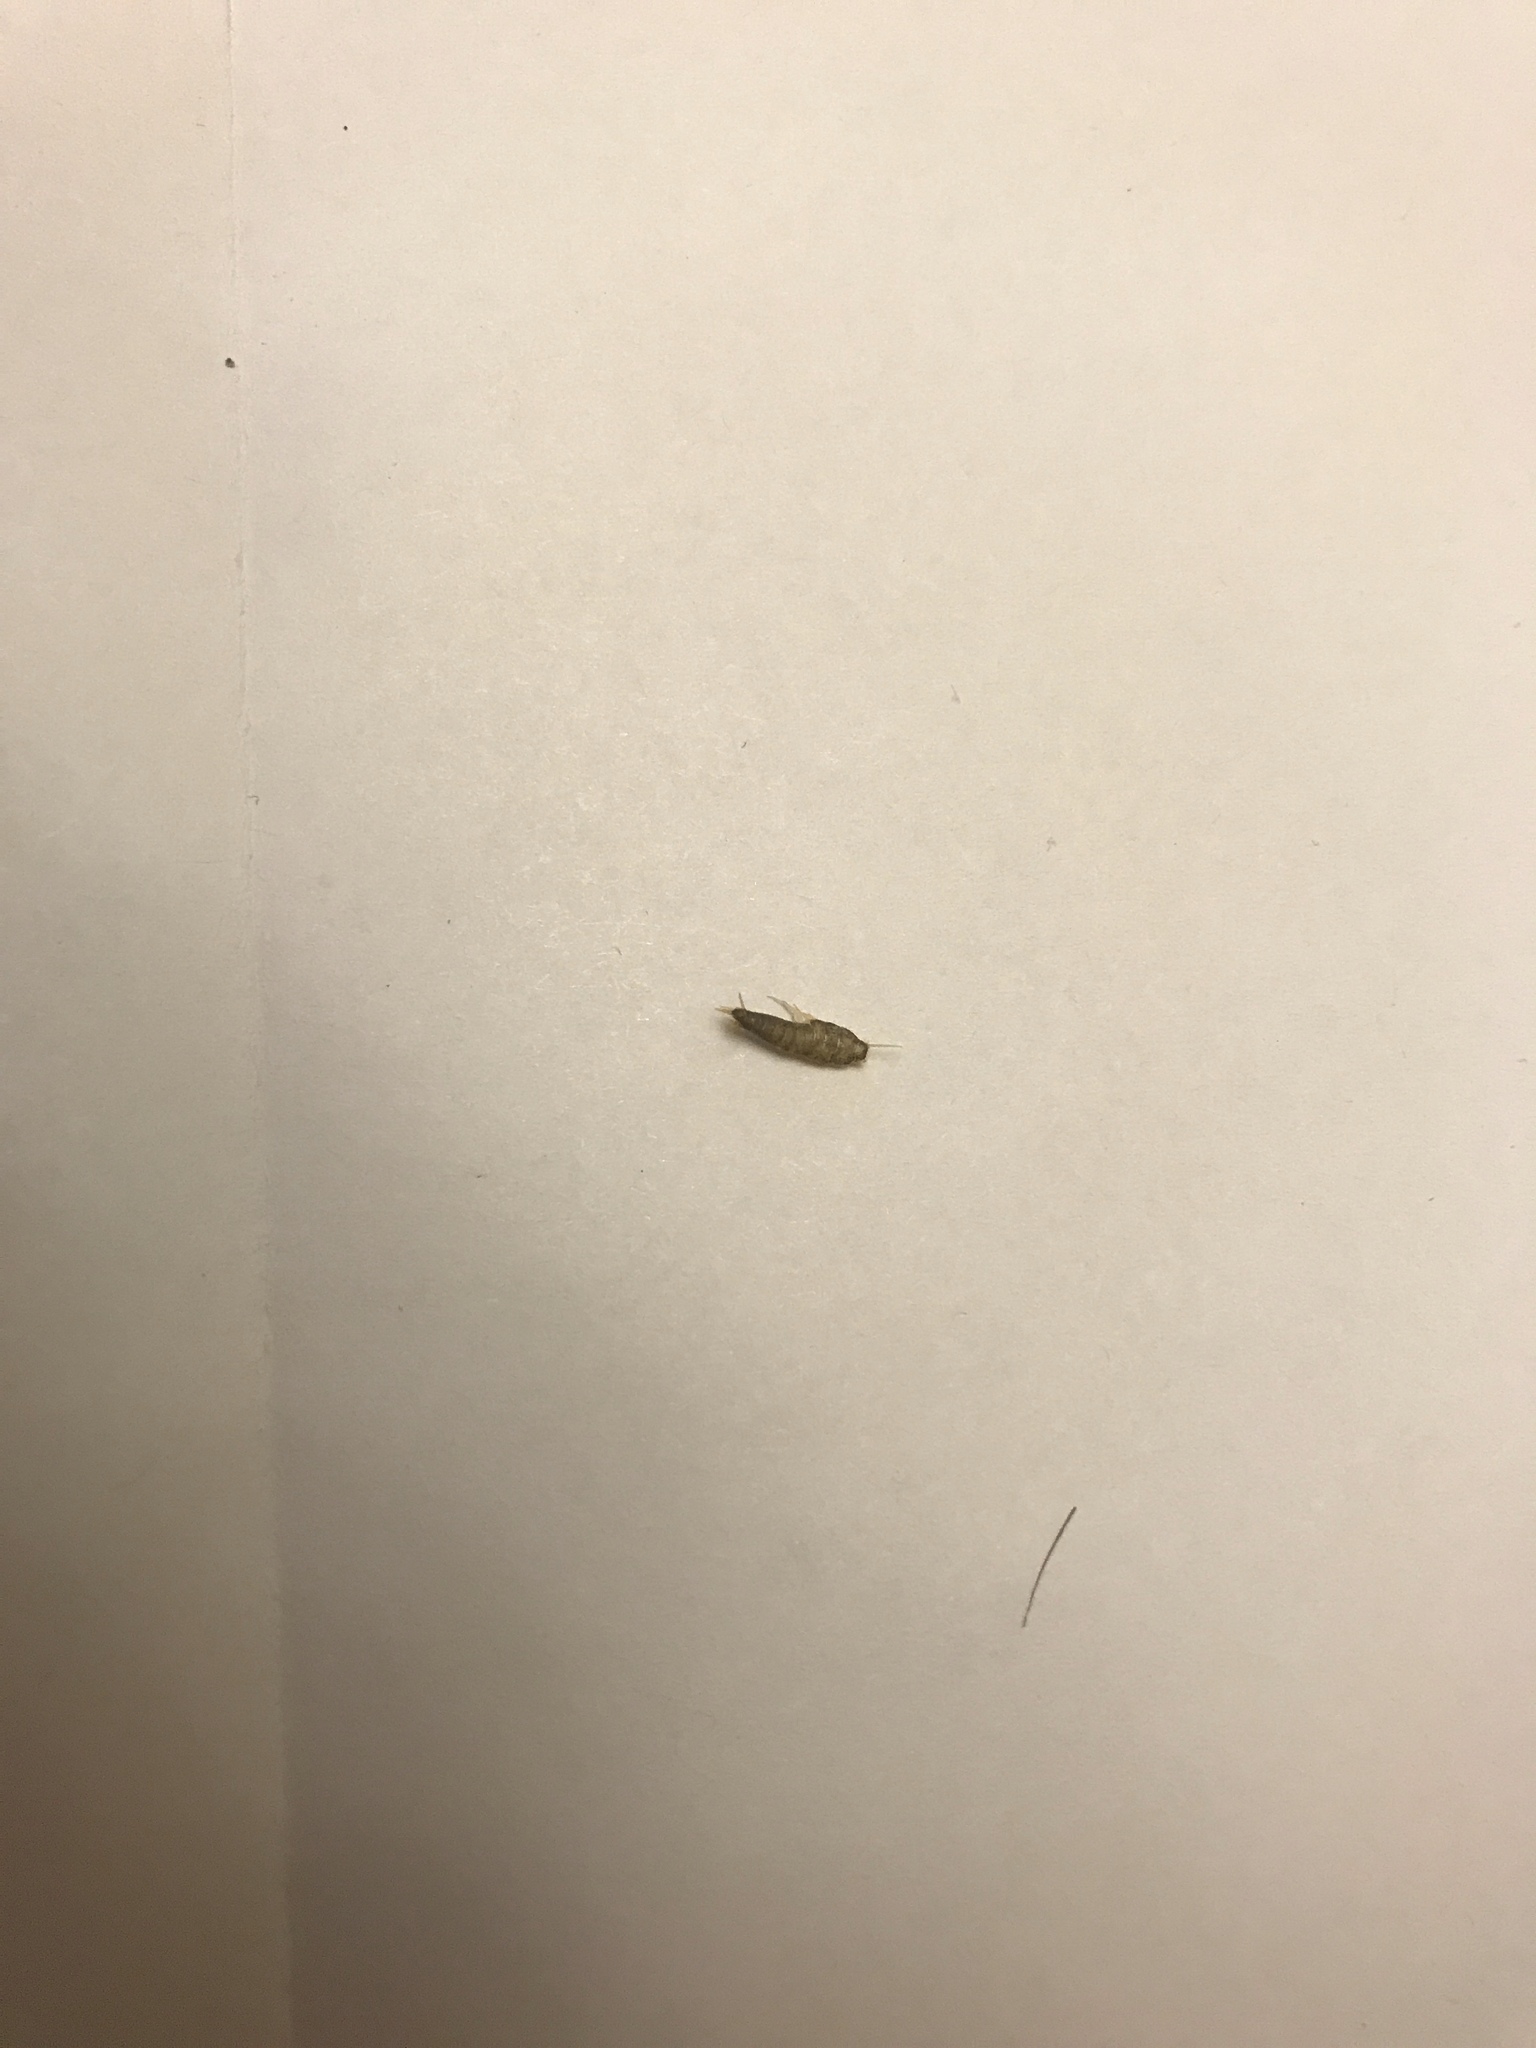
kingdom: Animalia
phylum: Arthropoda
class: Insecta
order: Zygentoma
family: Lepismatidae
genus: Lepisma
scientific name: Lepisma saccharinum
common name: Silverfish
